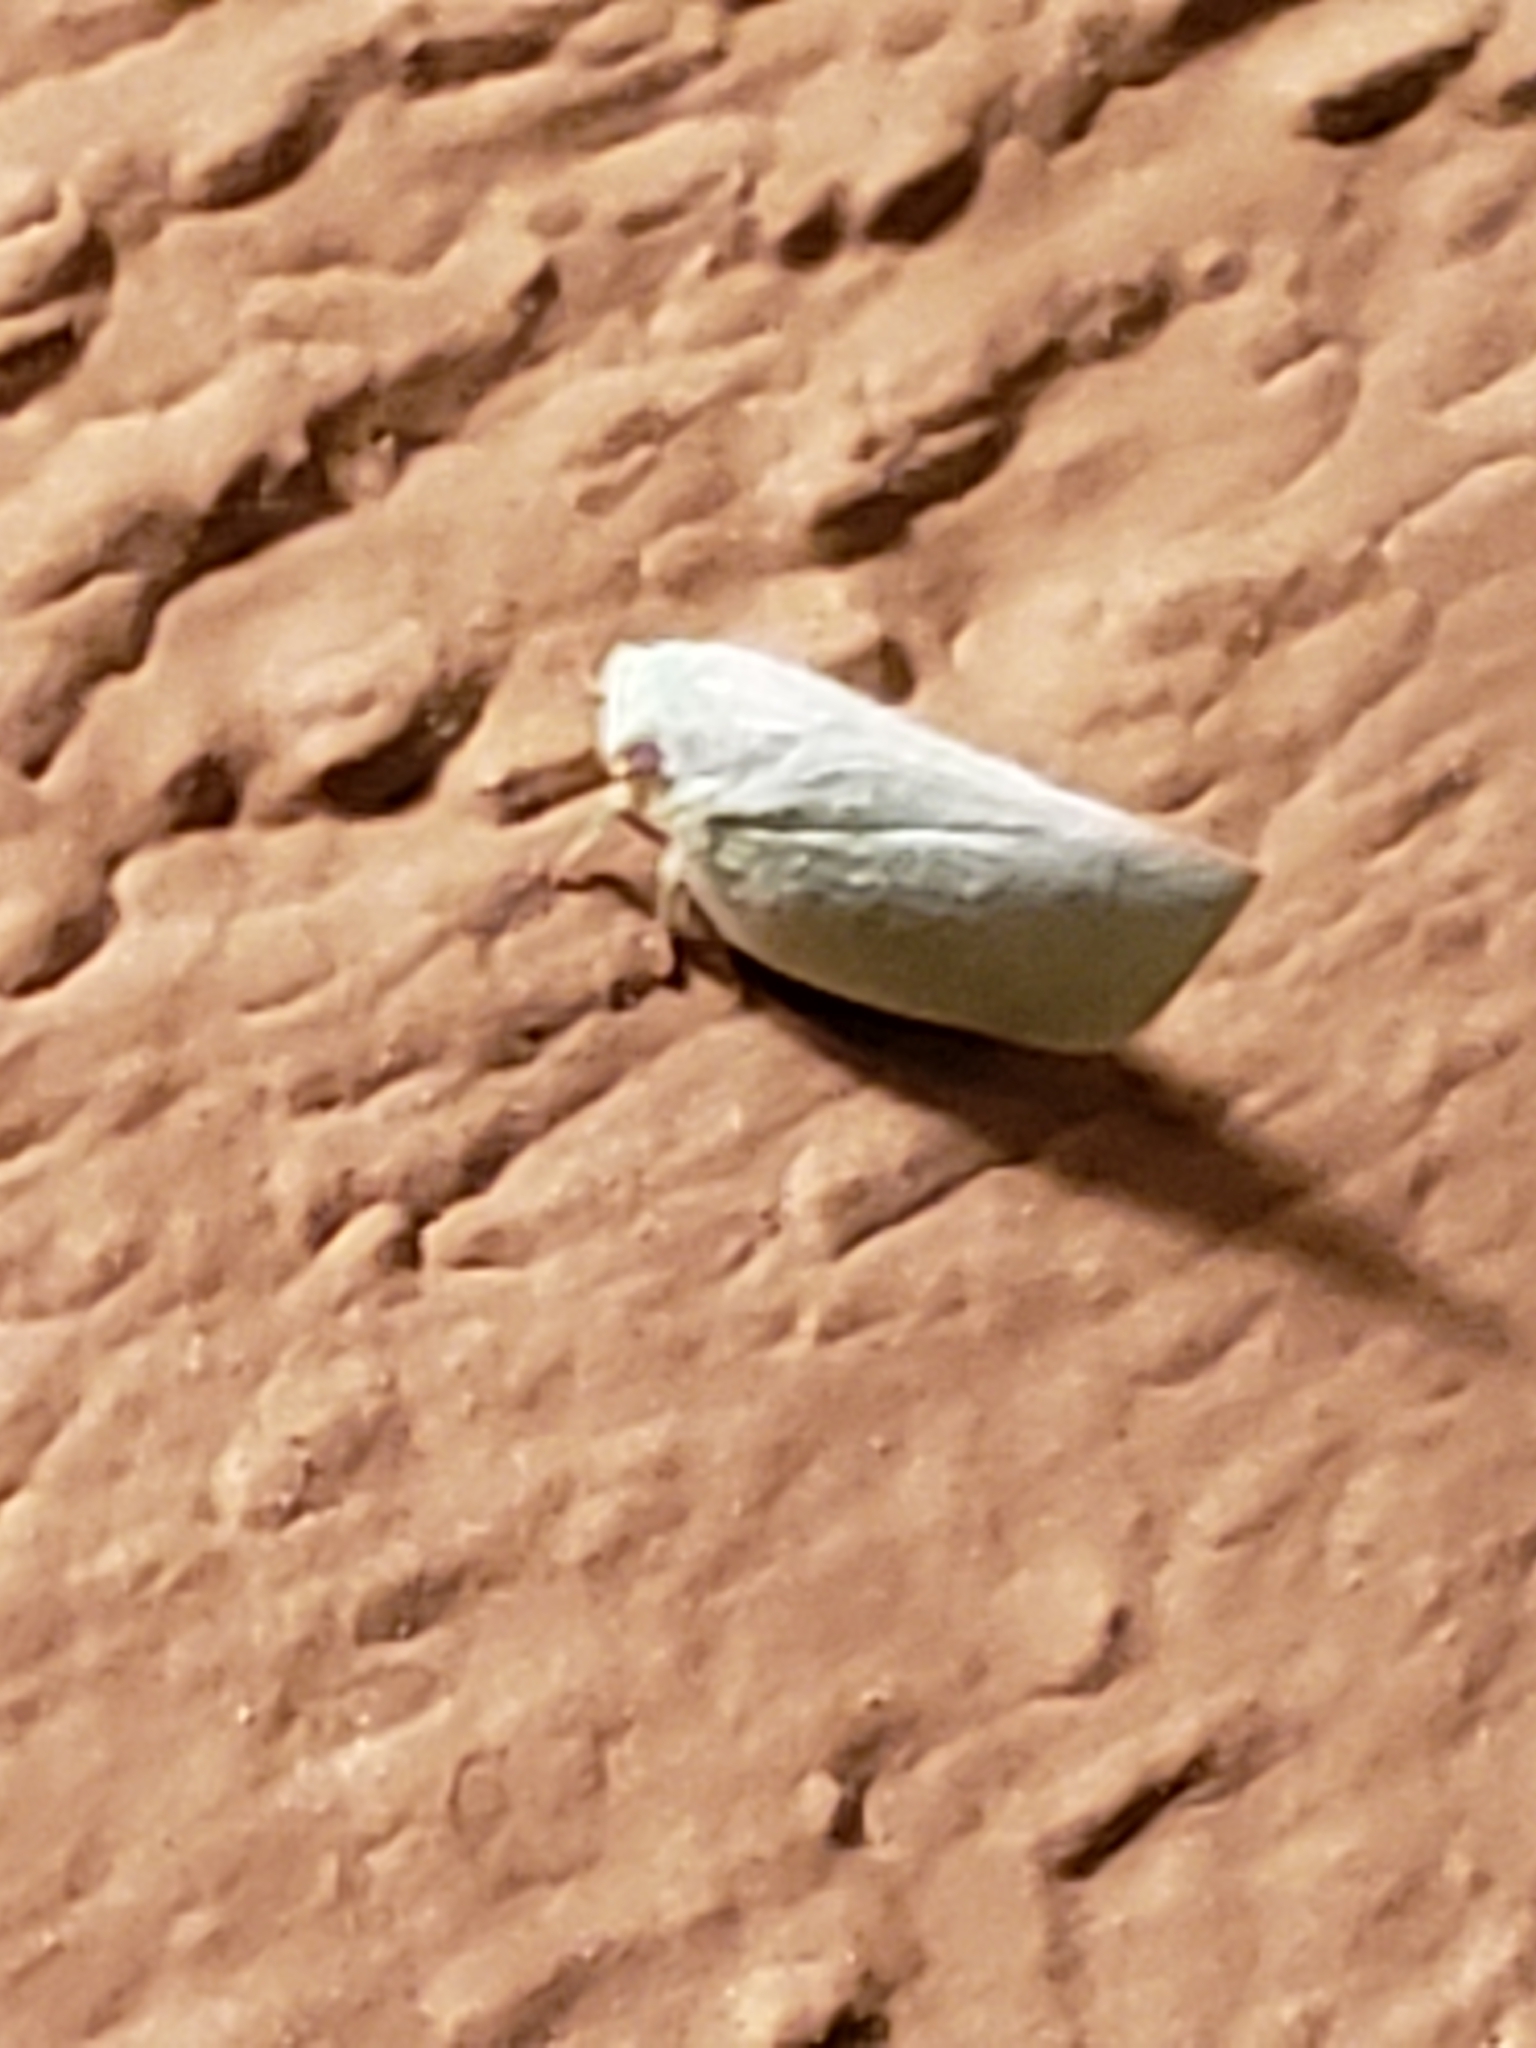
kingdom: Animalia
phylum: Arthropoda
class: Insecta
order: Hemiptera
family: Flatidae
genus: Flatormenis
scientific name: Flatormenis proxima
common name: Northern flatid planthopper
